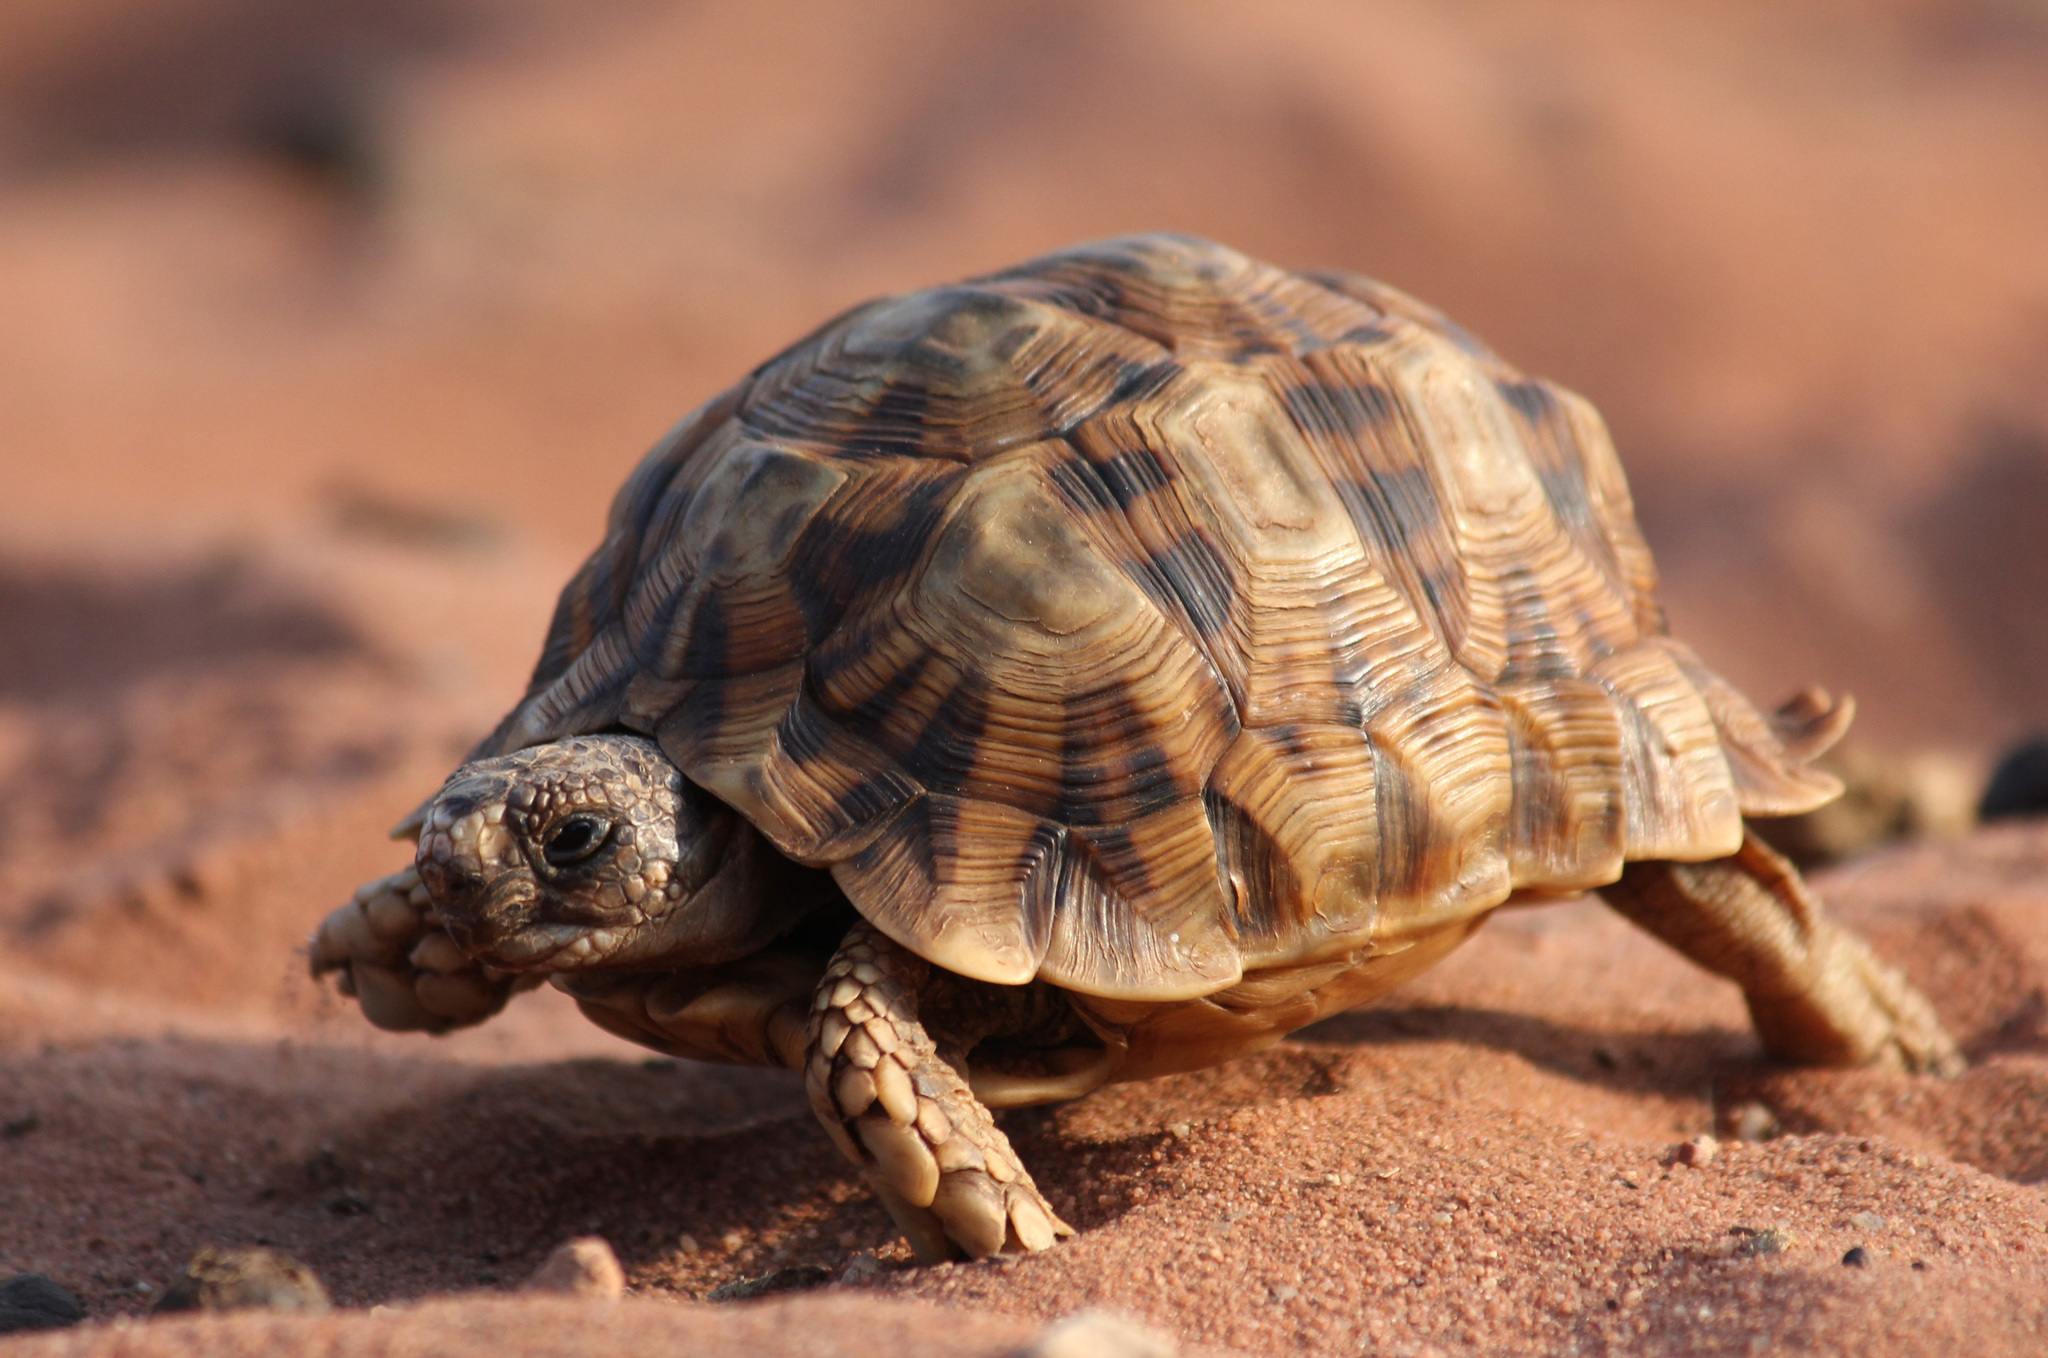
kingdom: Animalia
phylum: Chordata
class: Testudines
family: Testudinidae
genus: Psammobates
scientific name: Psammobates oculifer
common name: Serrated tortoise
